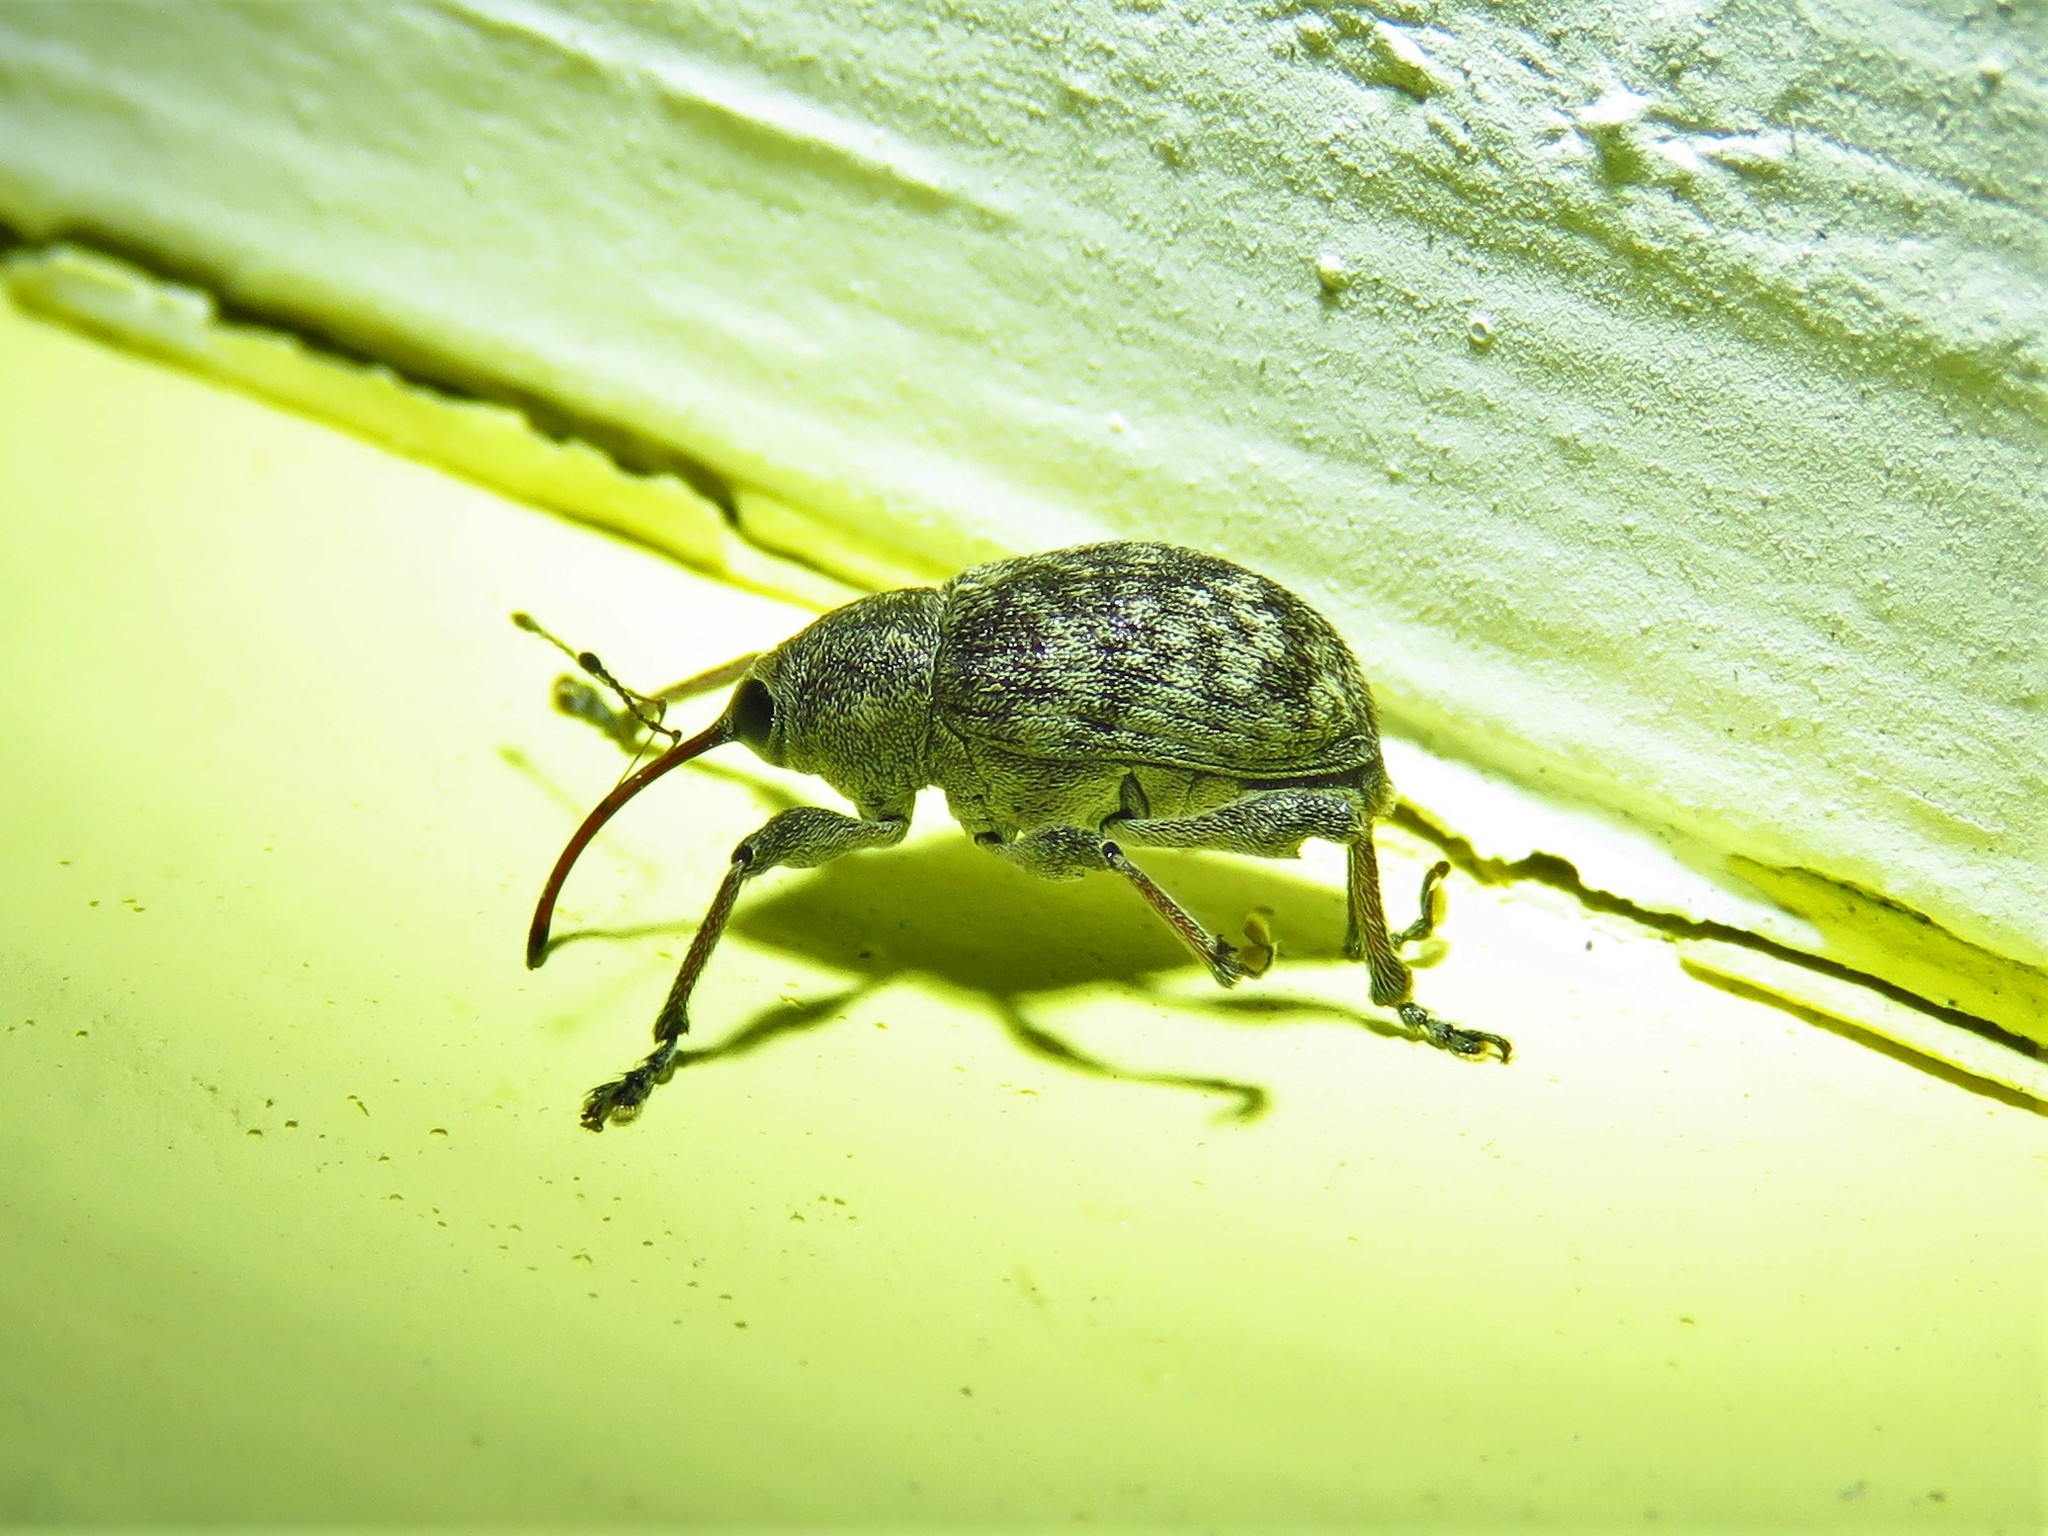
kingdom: Animalia
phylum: Arthropoda
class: Insecta
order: Coleoptera
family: Curculionidae
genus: Curculio
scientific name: Curculio
